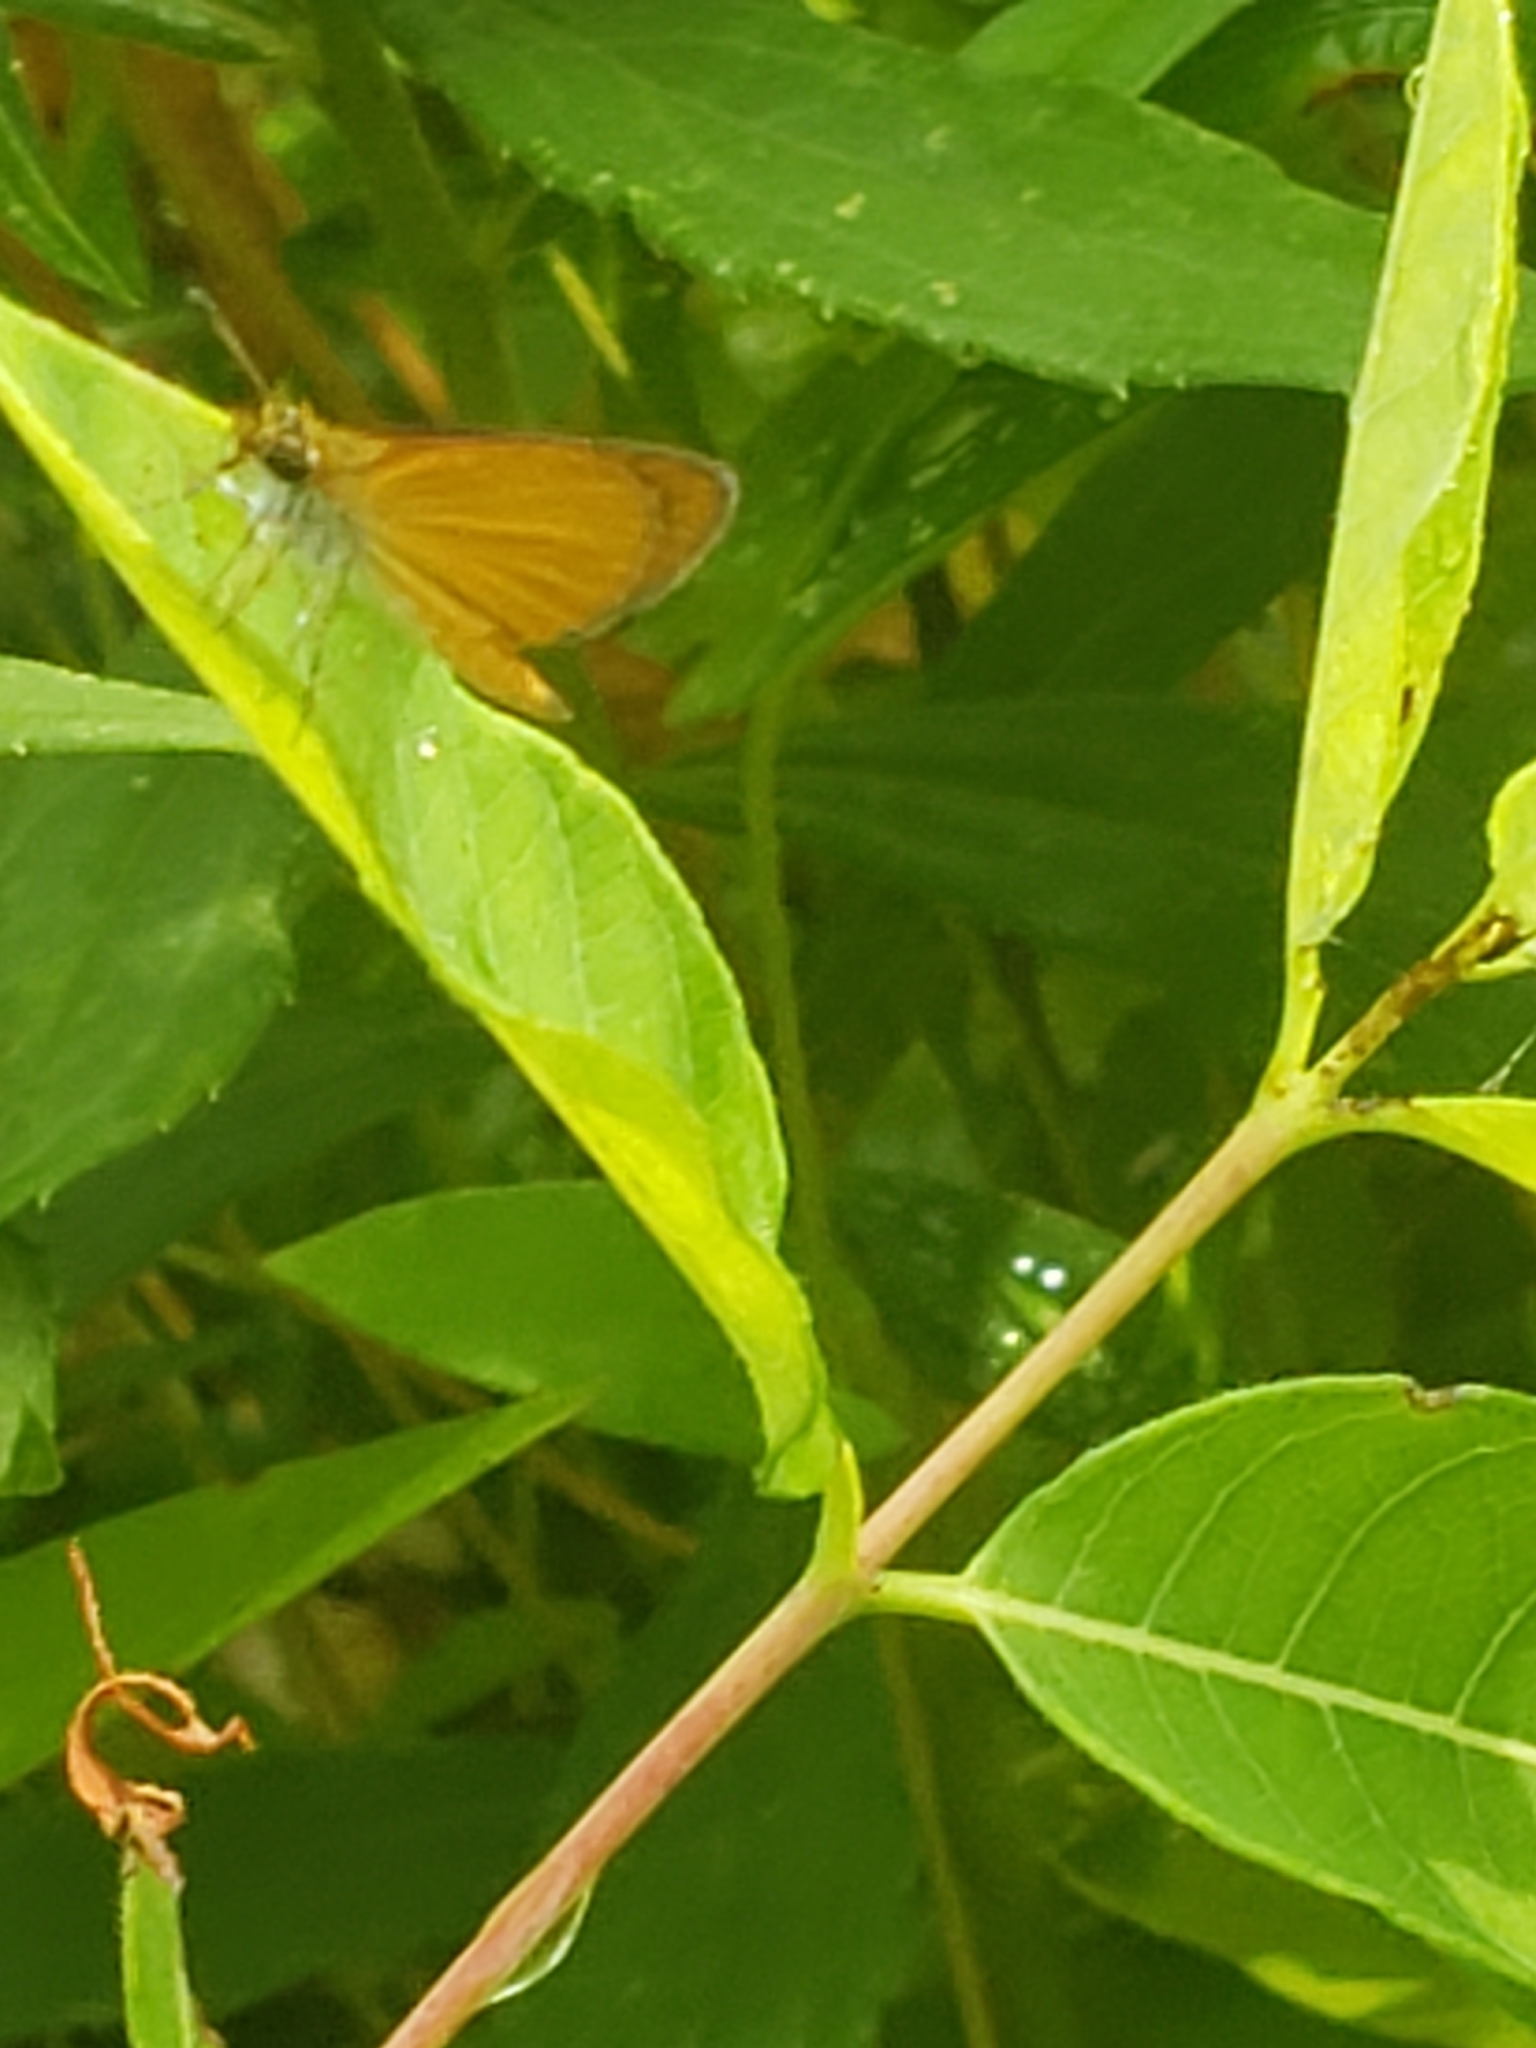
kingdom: Animalia
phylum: Arthropoda
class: Insecta
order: Lepidoptera
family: Hesperiidae
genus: Ancyloxypha
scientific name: Ancyloxypha numitor
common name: Least skipper
